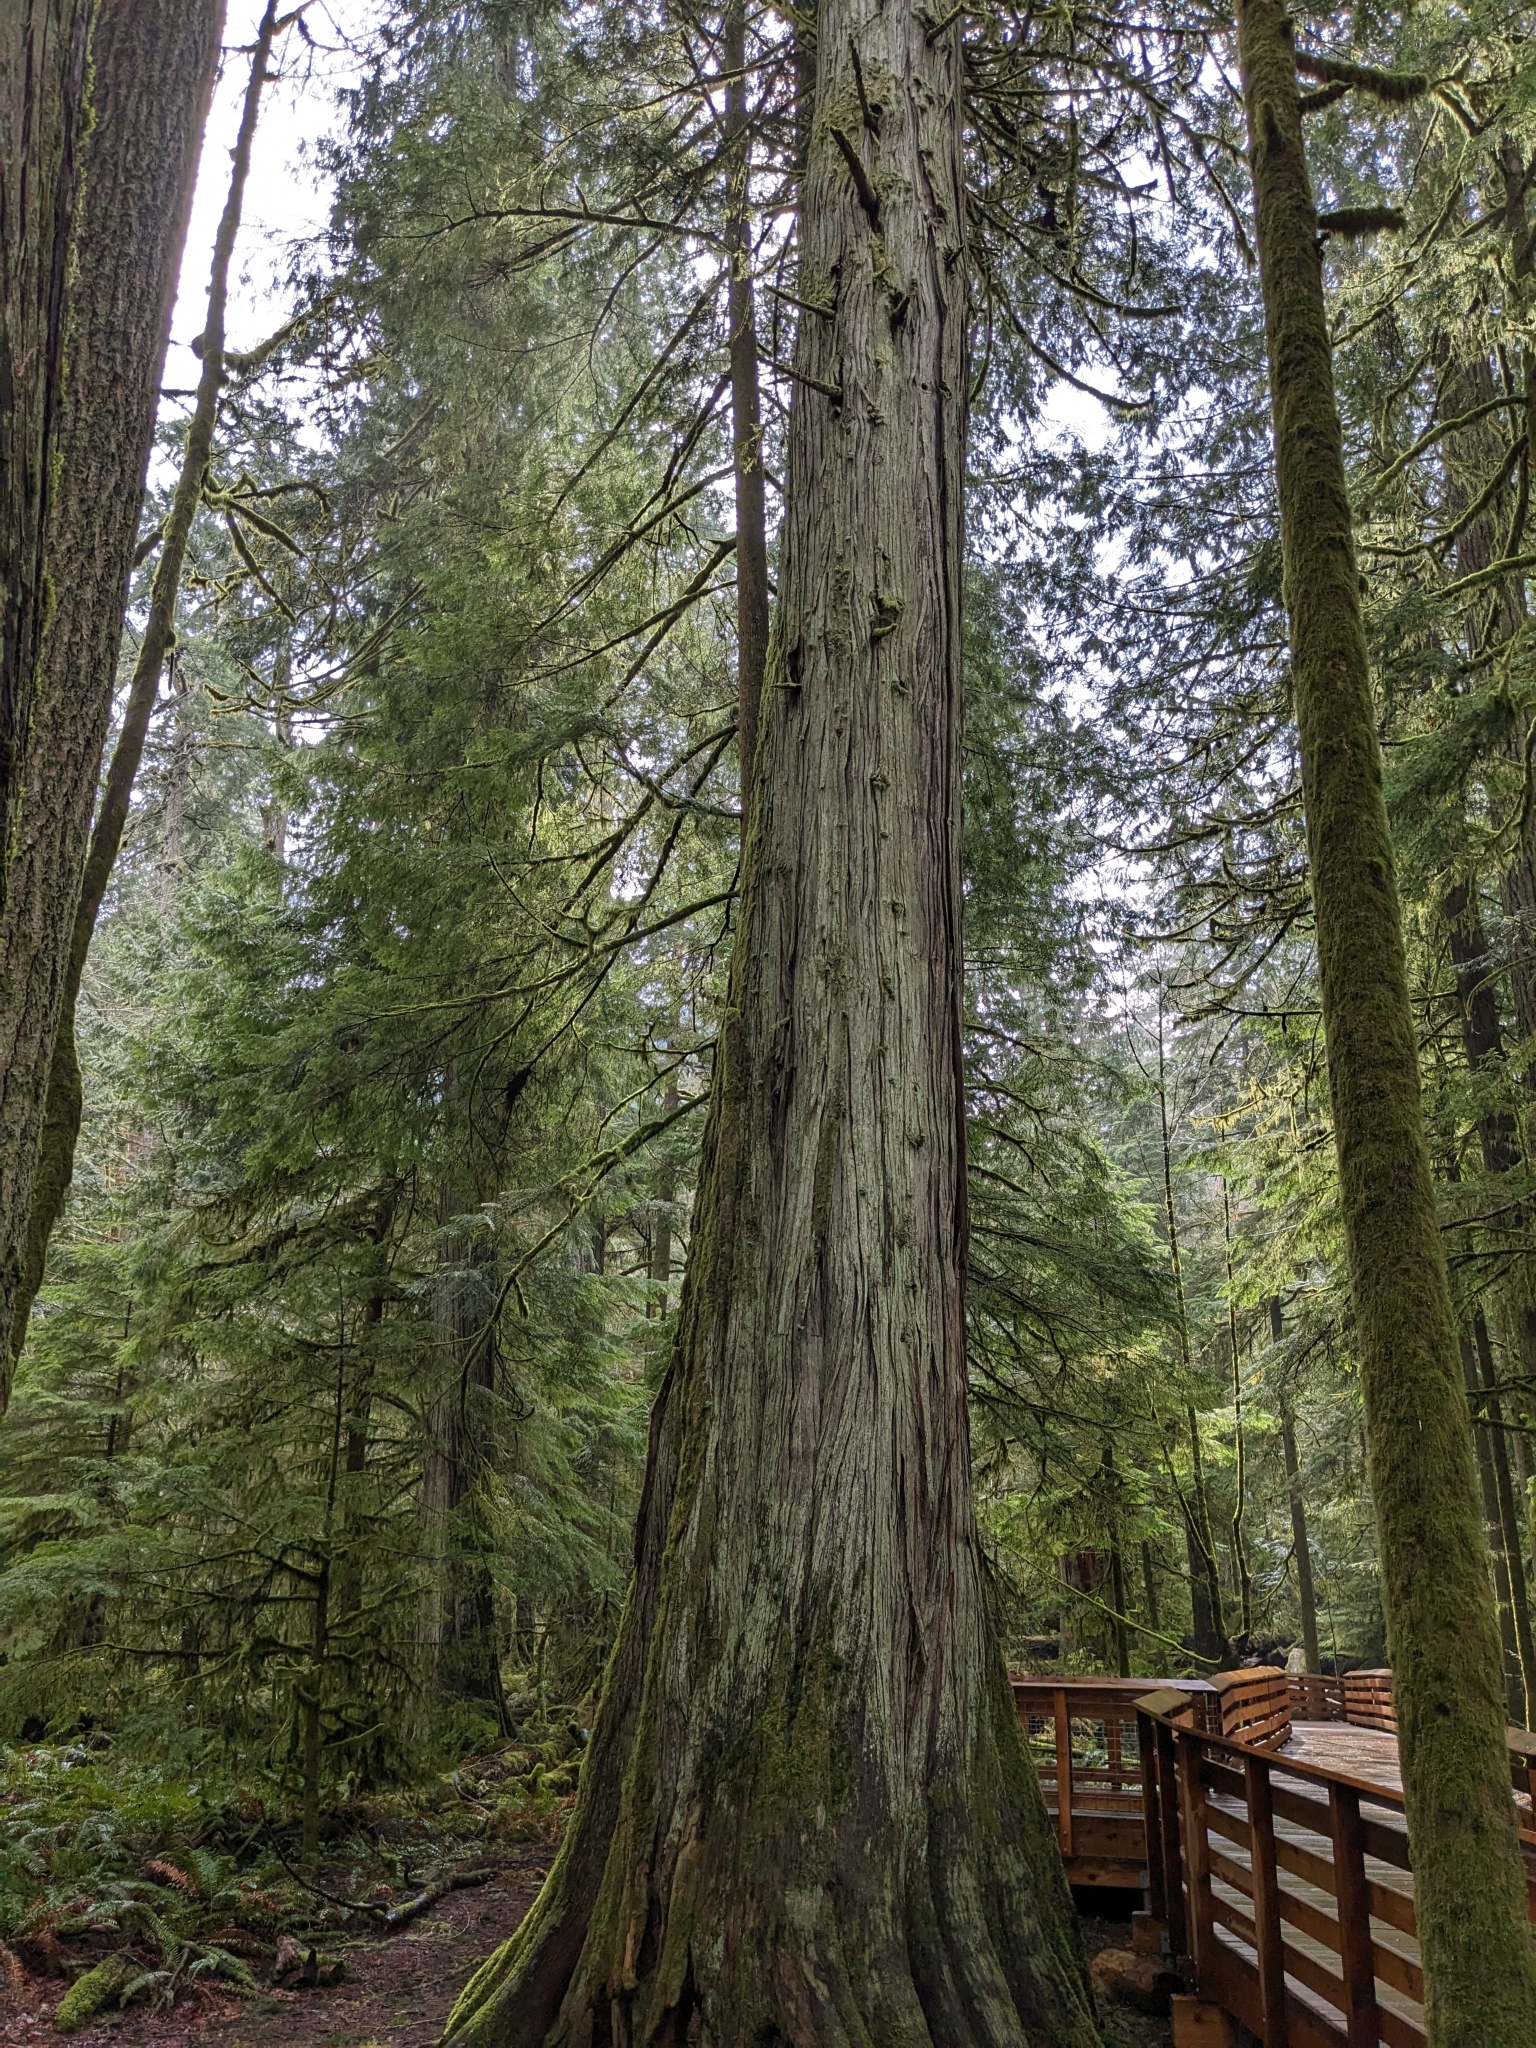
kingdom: Plantae
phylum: Tracheophyta
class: Pinopsida
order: Pinales
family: Cupressaceae
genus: Thuja
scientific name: Thuja plicata
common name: Western red-cedar
